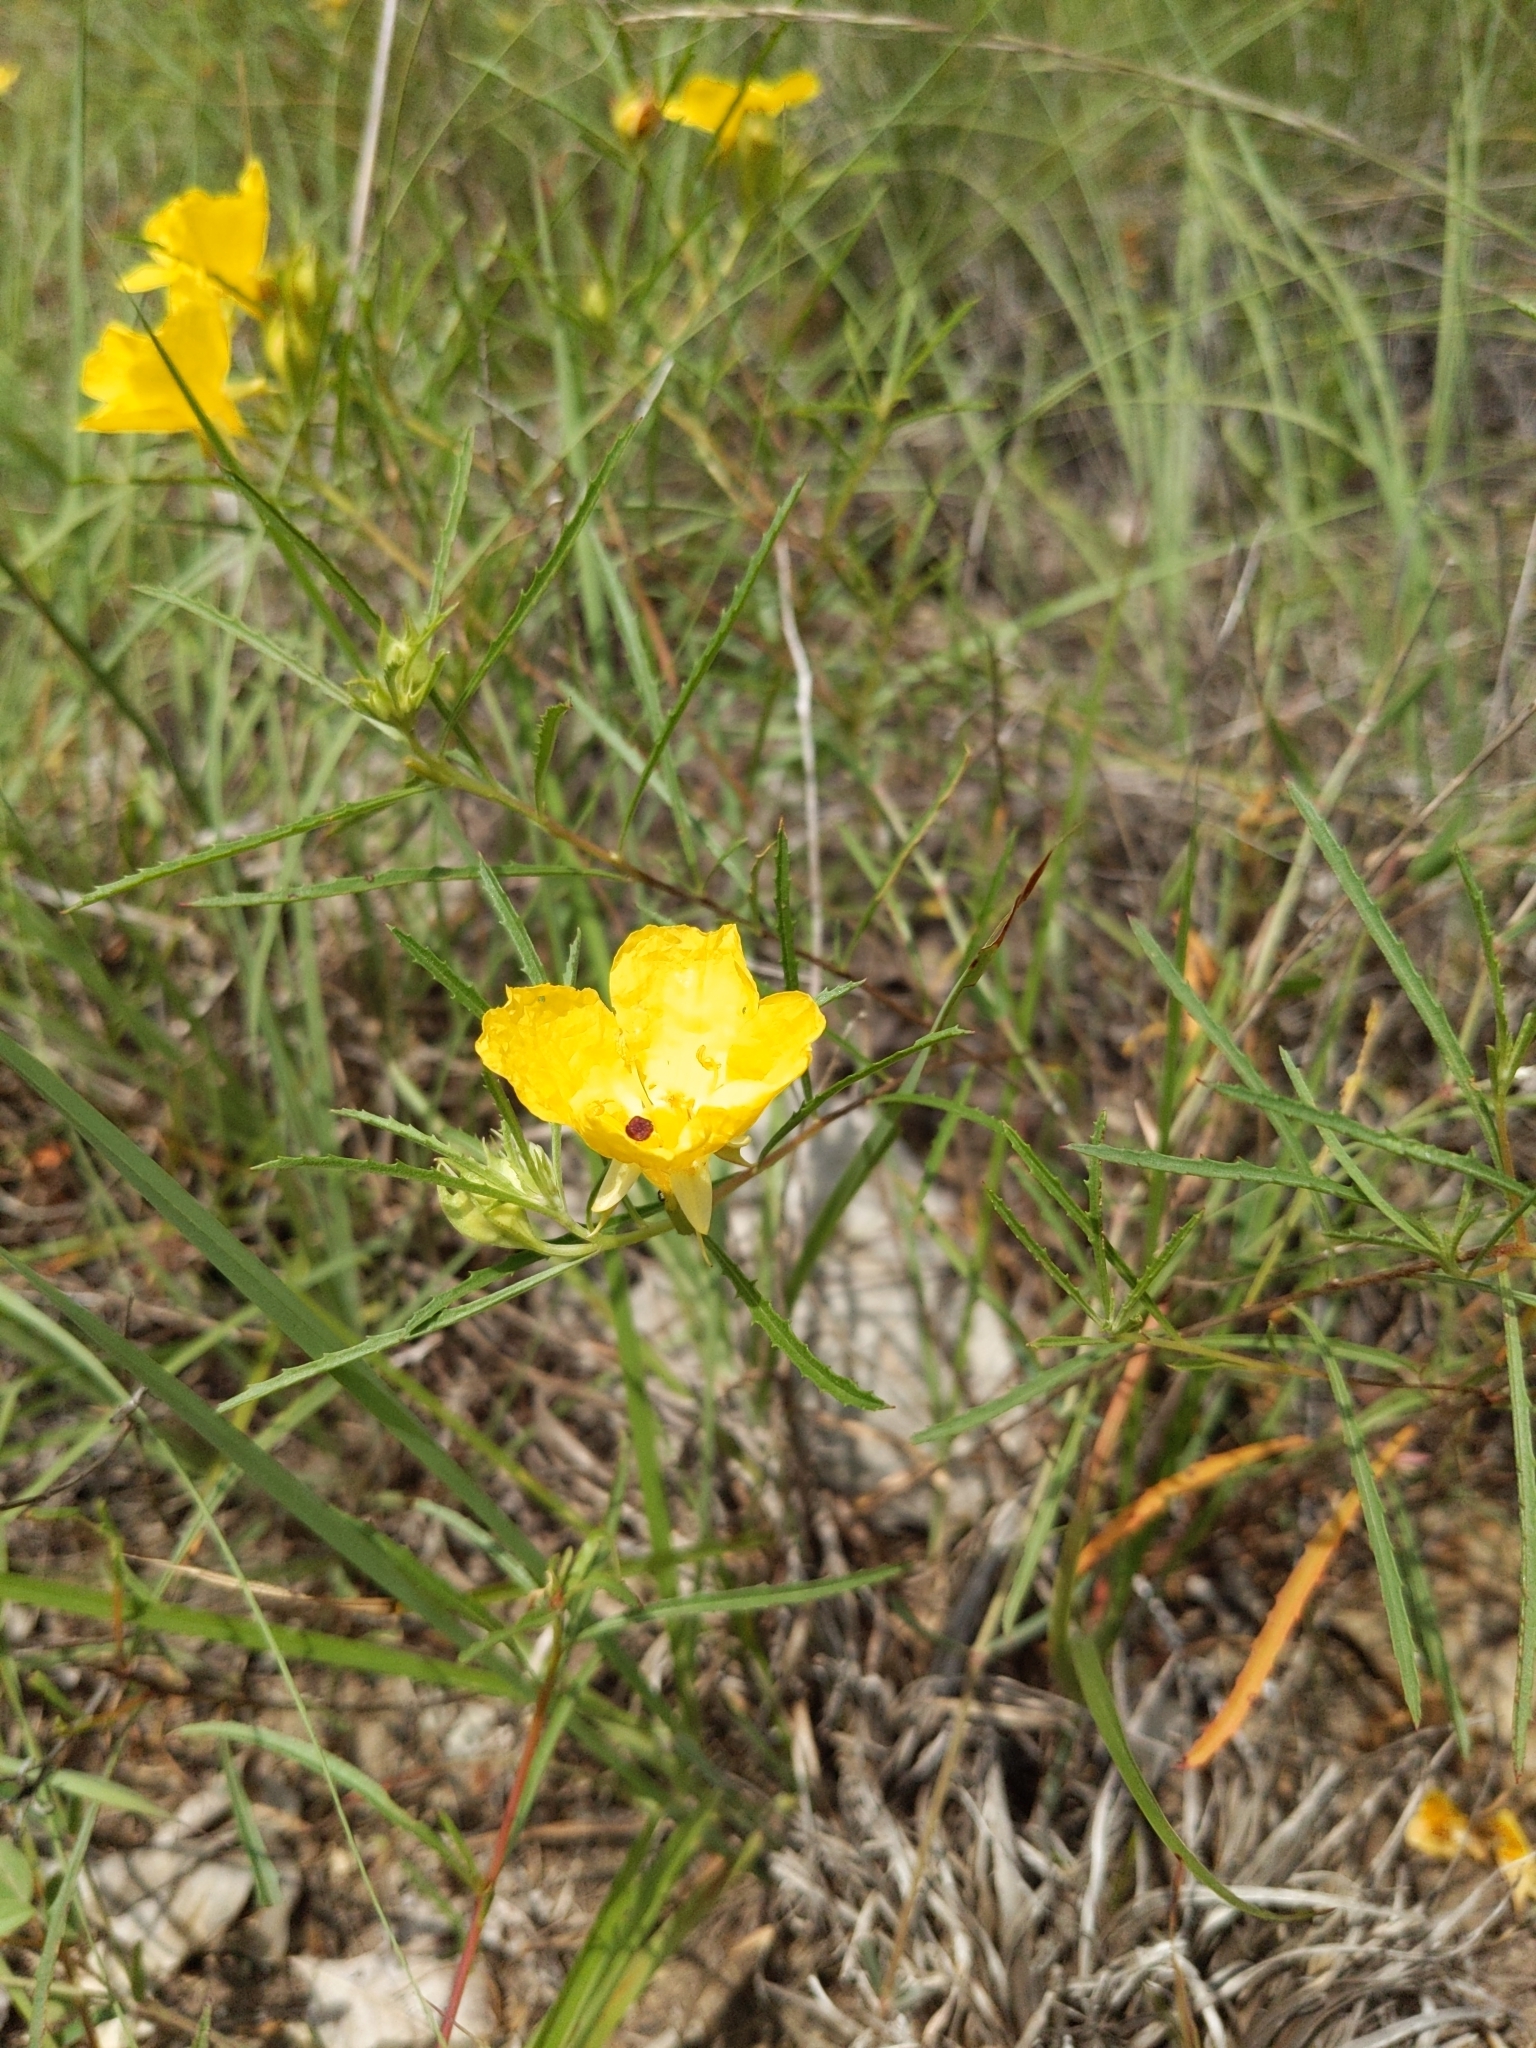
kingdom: Plantae
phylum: Tracheophyta
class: Magnoliopsida
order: Myrtales
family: Onagraceae
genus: Oenothera
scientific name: Oenothera
